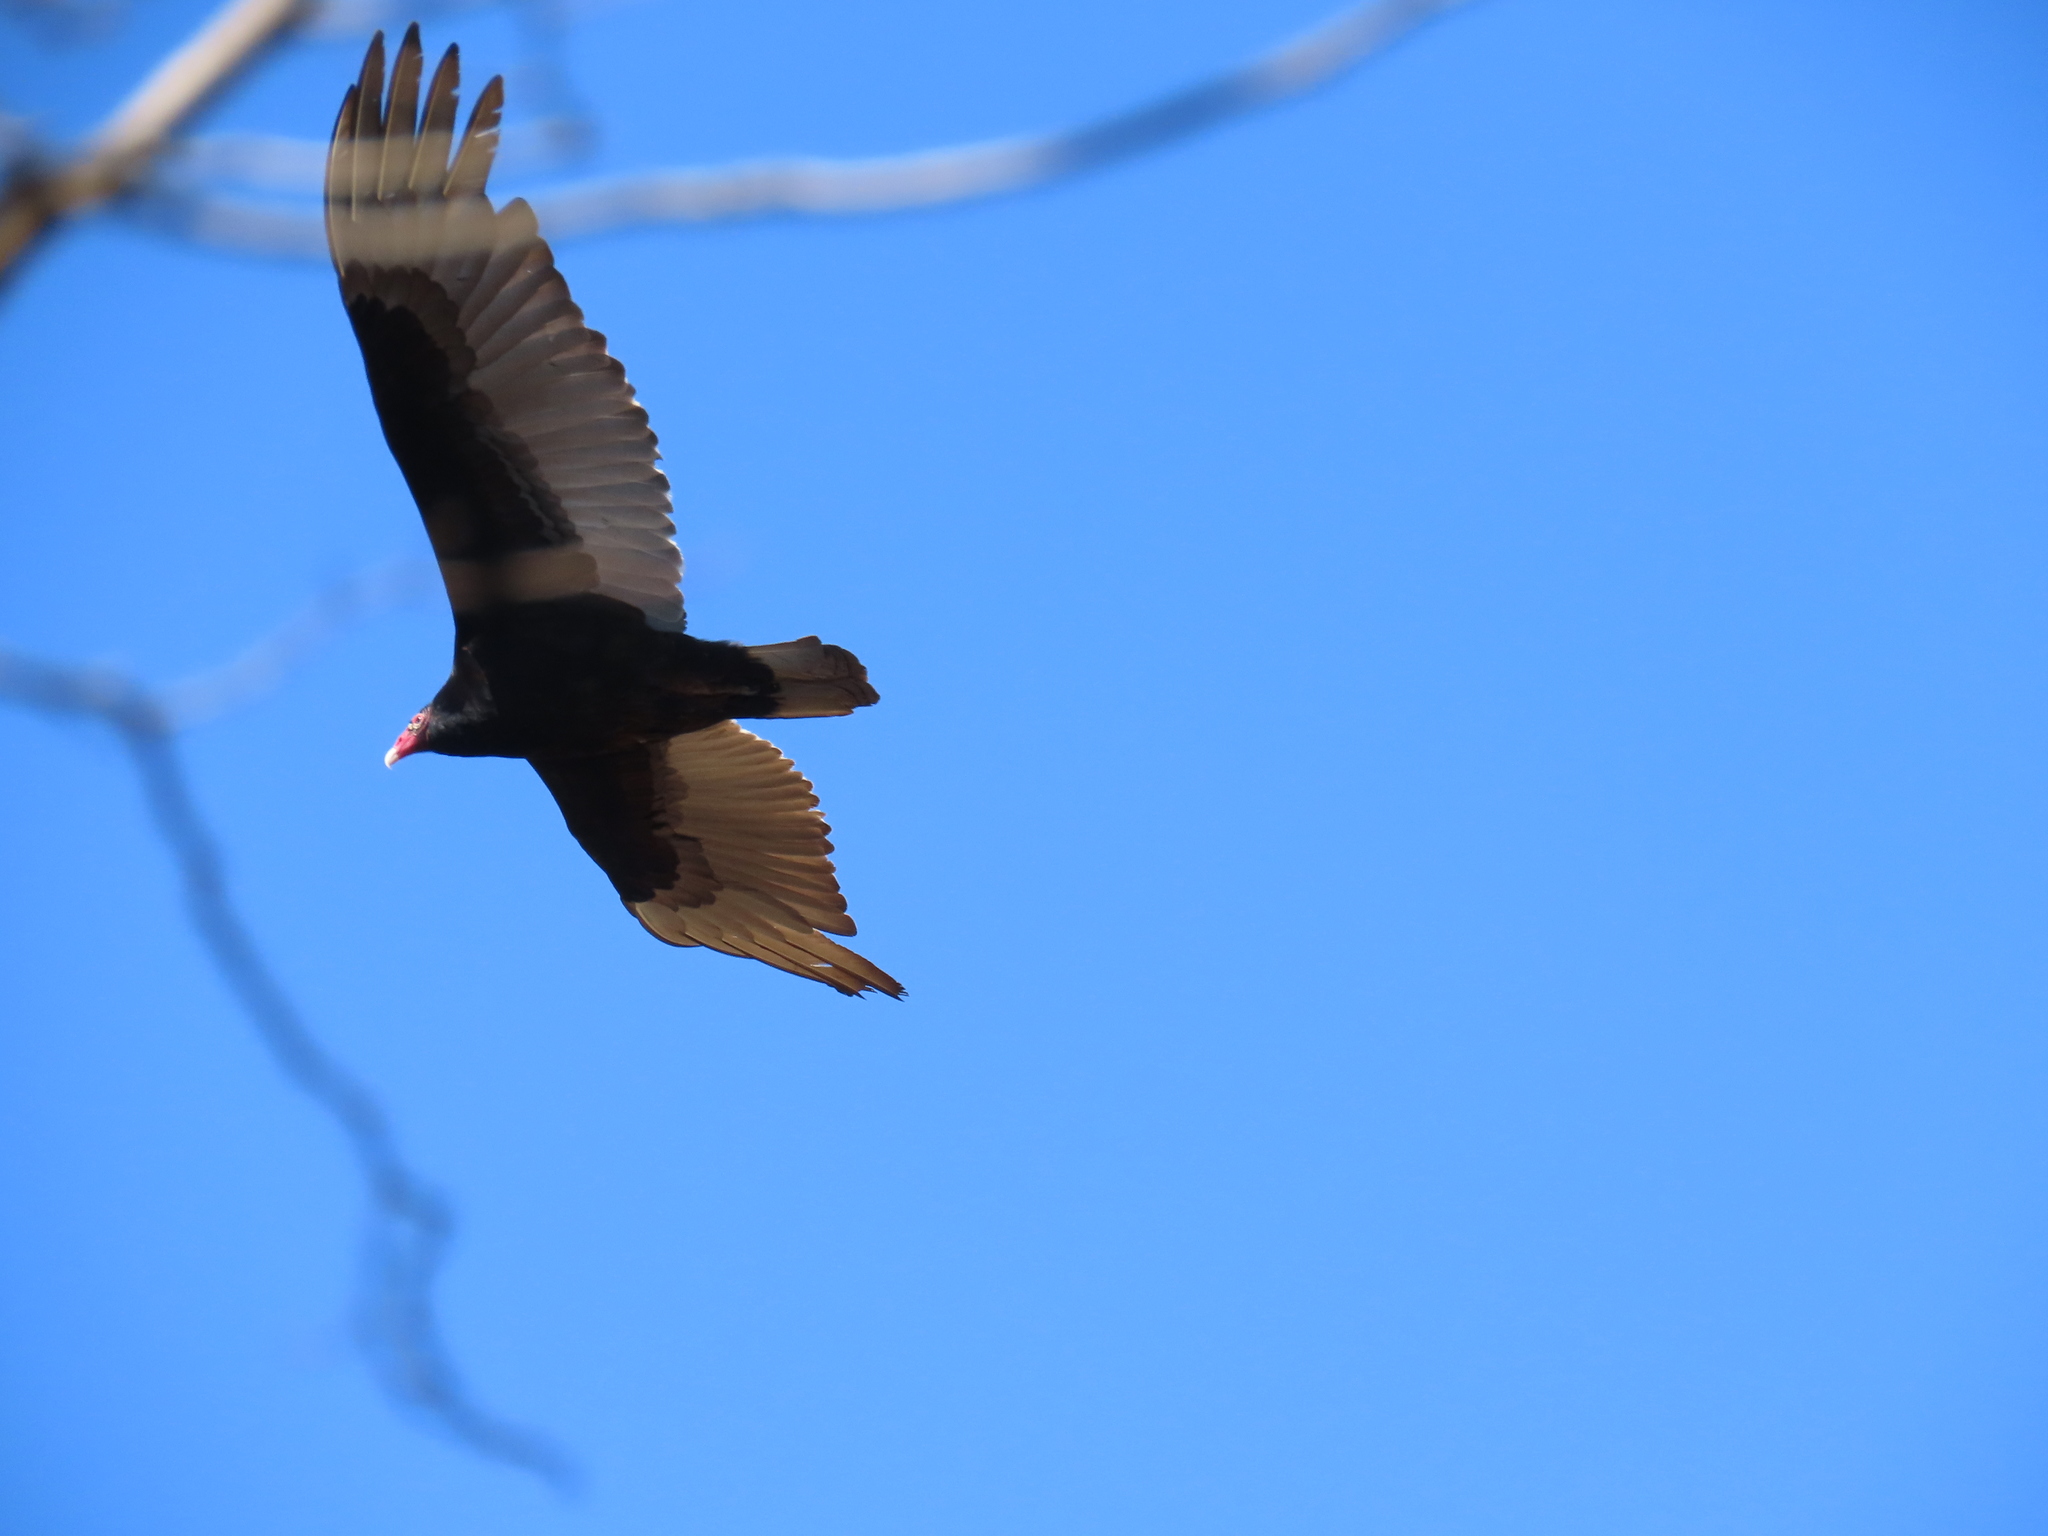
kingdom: Animalia
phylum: Chordata
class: Aves
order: Accipitriformes
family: Cathartidae
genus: Cathartes
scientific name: Cathartes aura
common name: Turkey vulture
